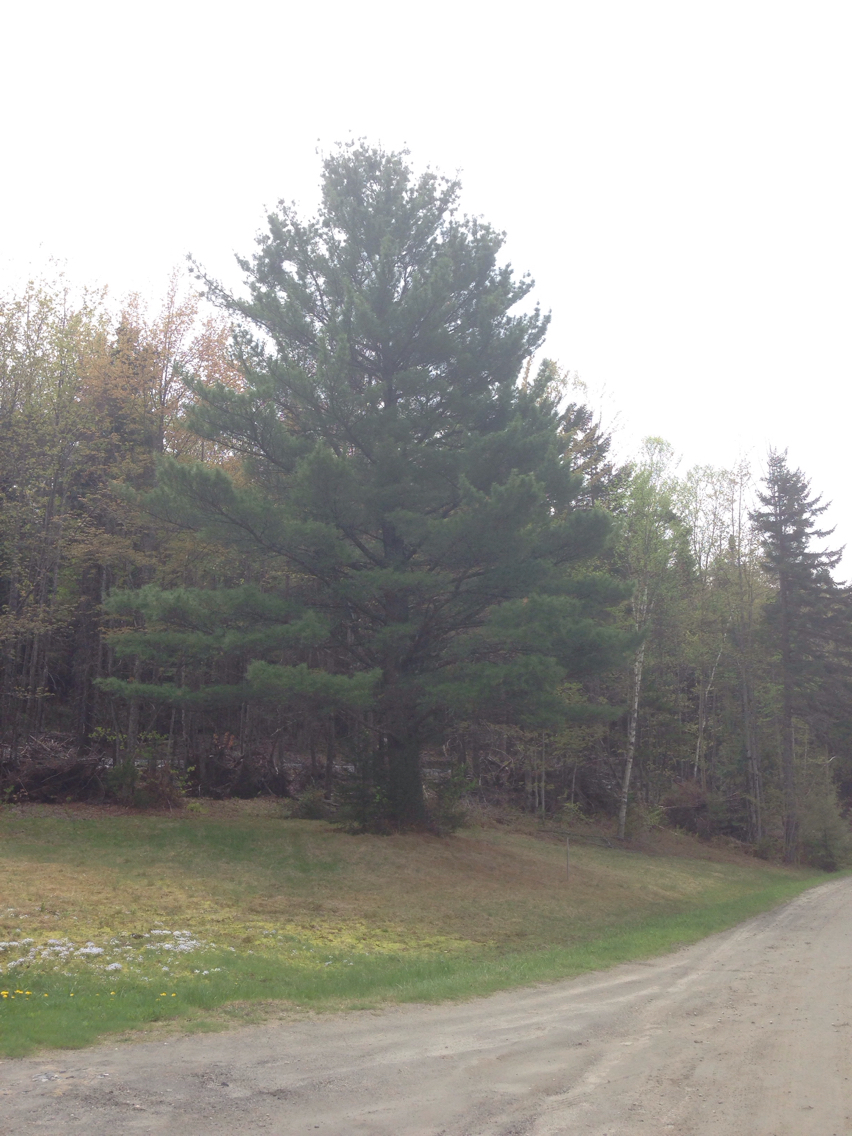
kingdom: Plantae
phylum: Tracheophyta
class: Pinopsida
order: Pinales
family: Pinaceae
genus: Pinus
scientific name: Pinus strobus
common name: Weymouth pine
